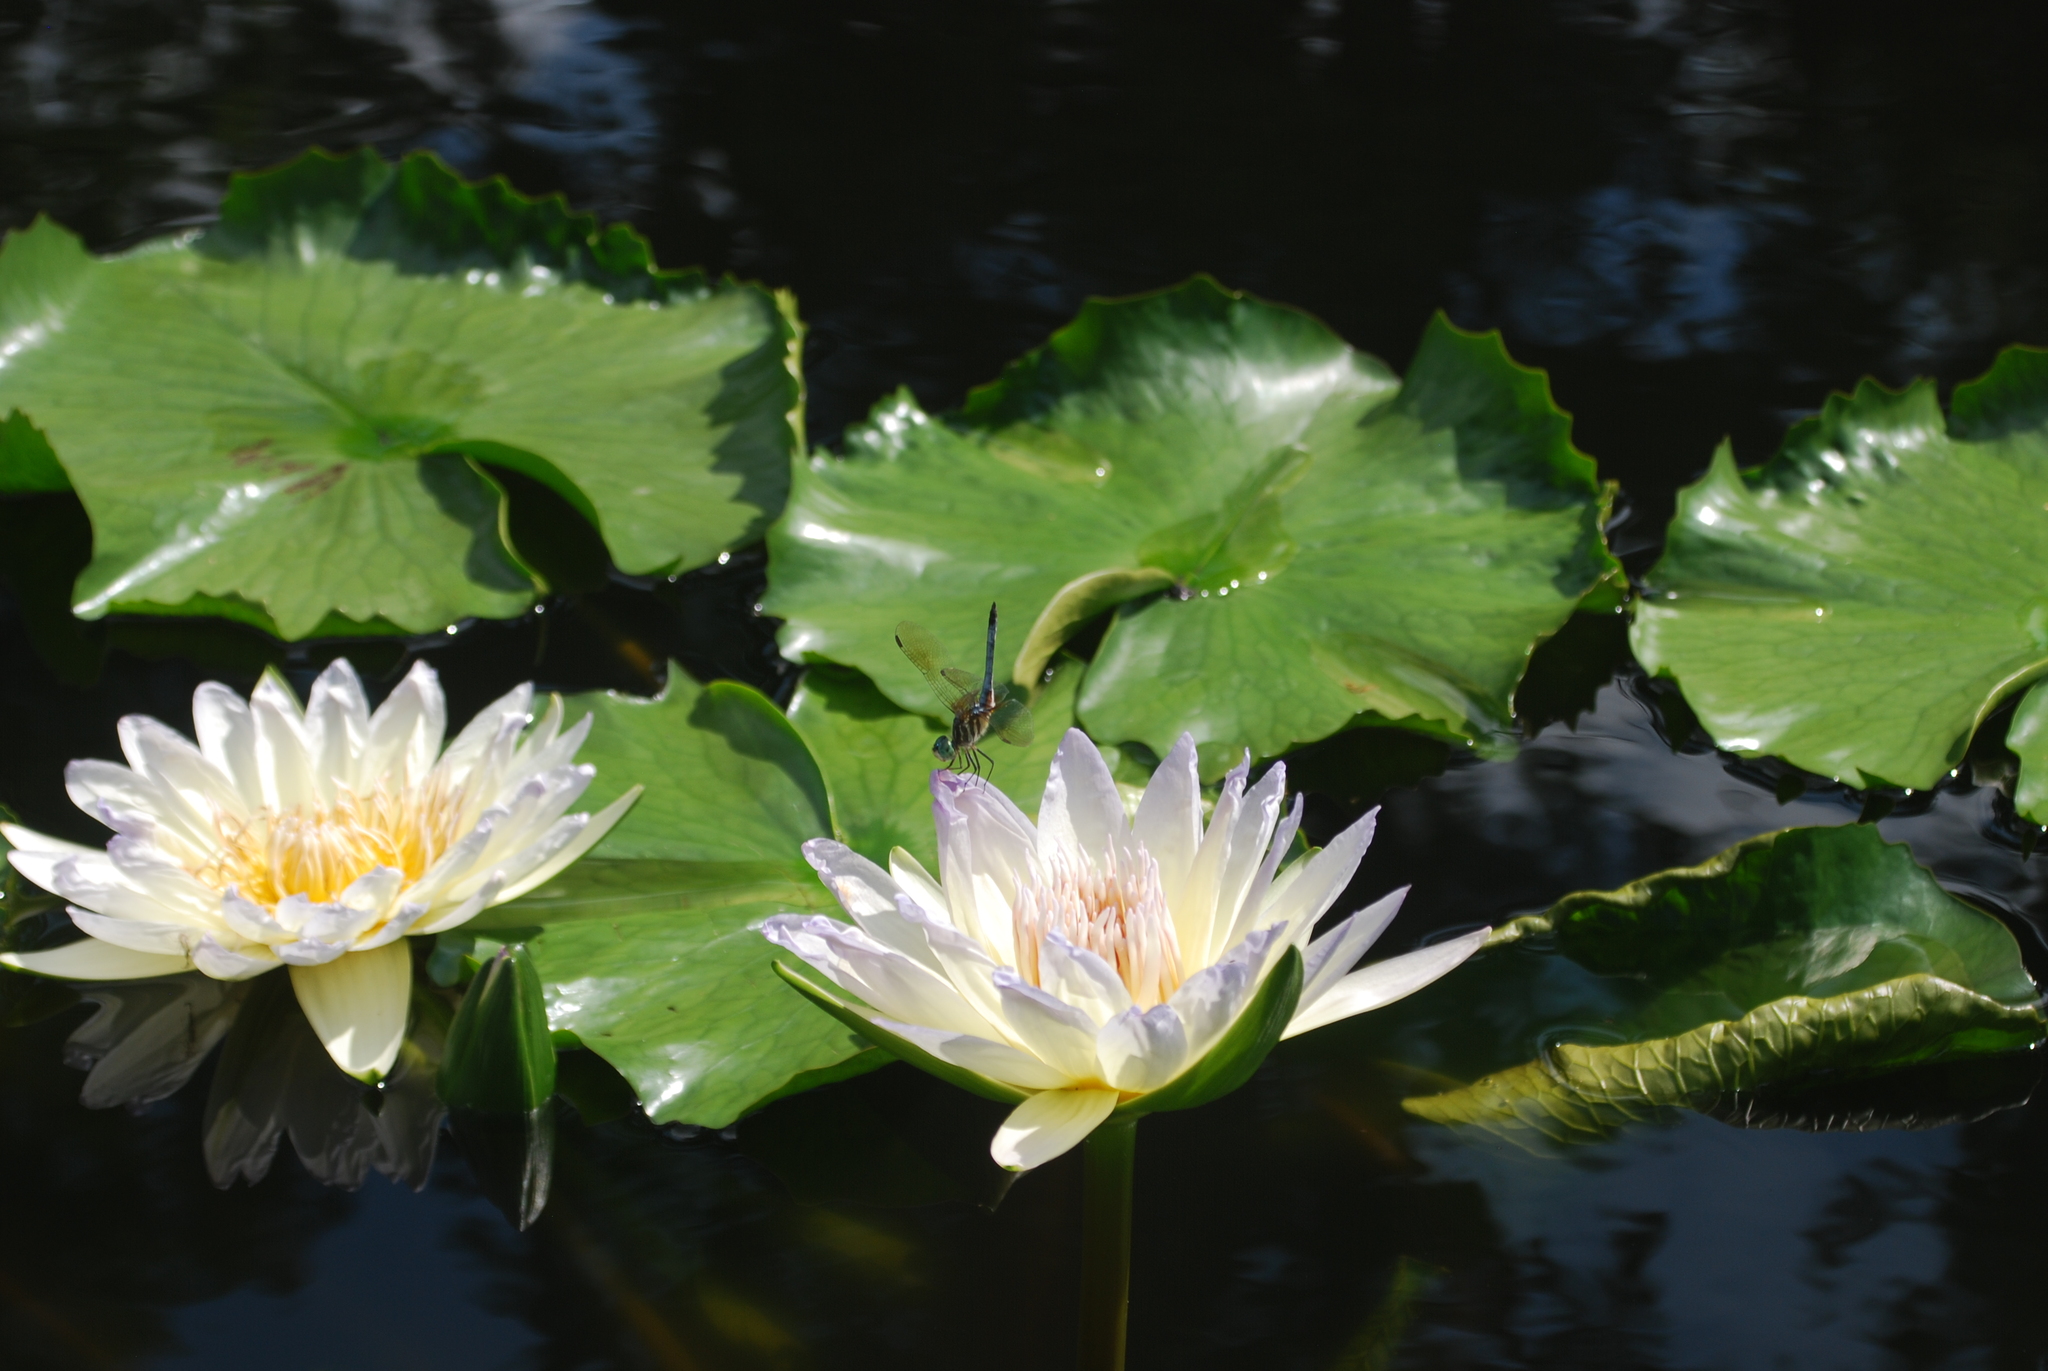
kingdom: Animalia
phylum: Arthropoda
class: Insecta
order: Odonata
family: Libellulidae
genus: Pachydiplax
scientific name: Pachydiplax longipennis
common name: Blue dasher
